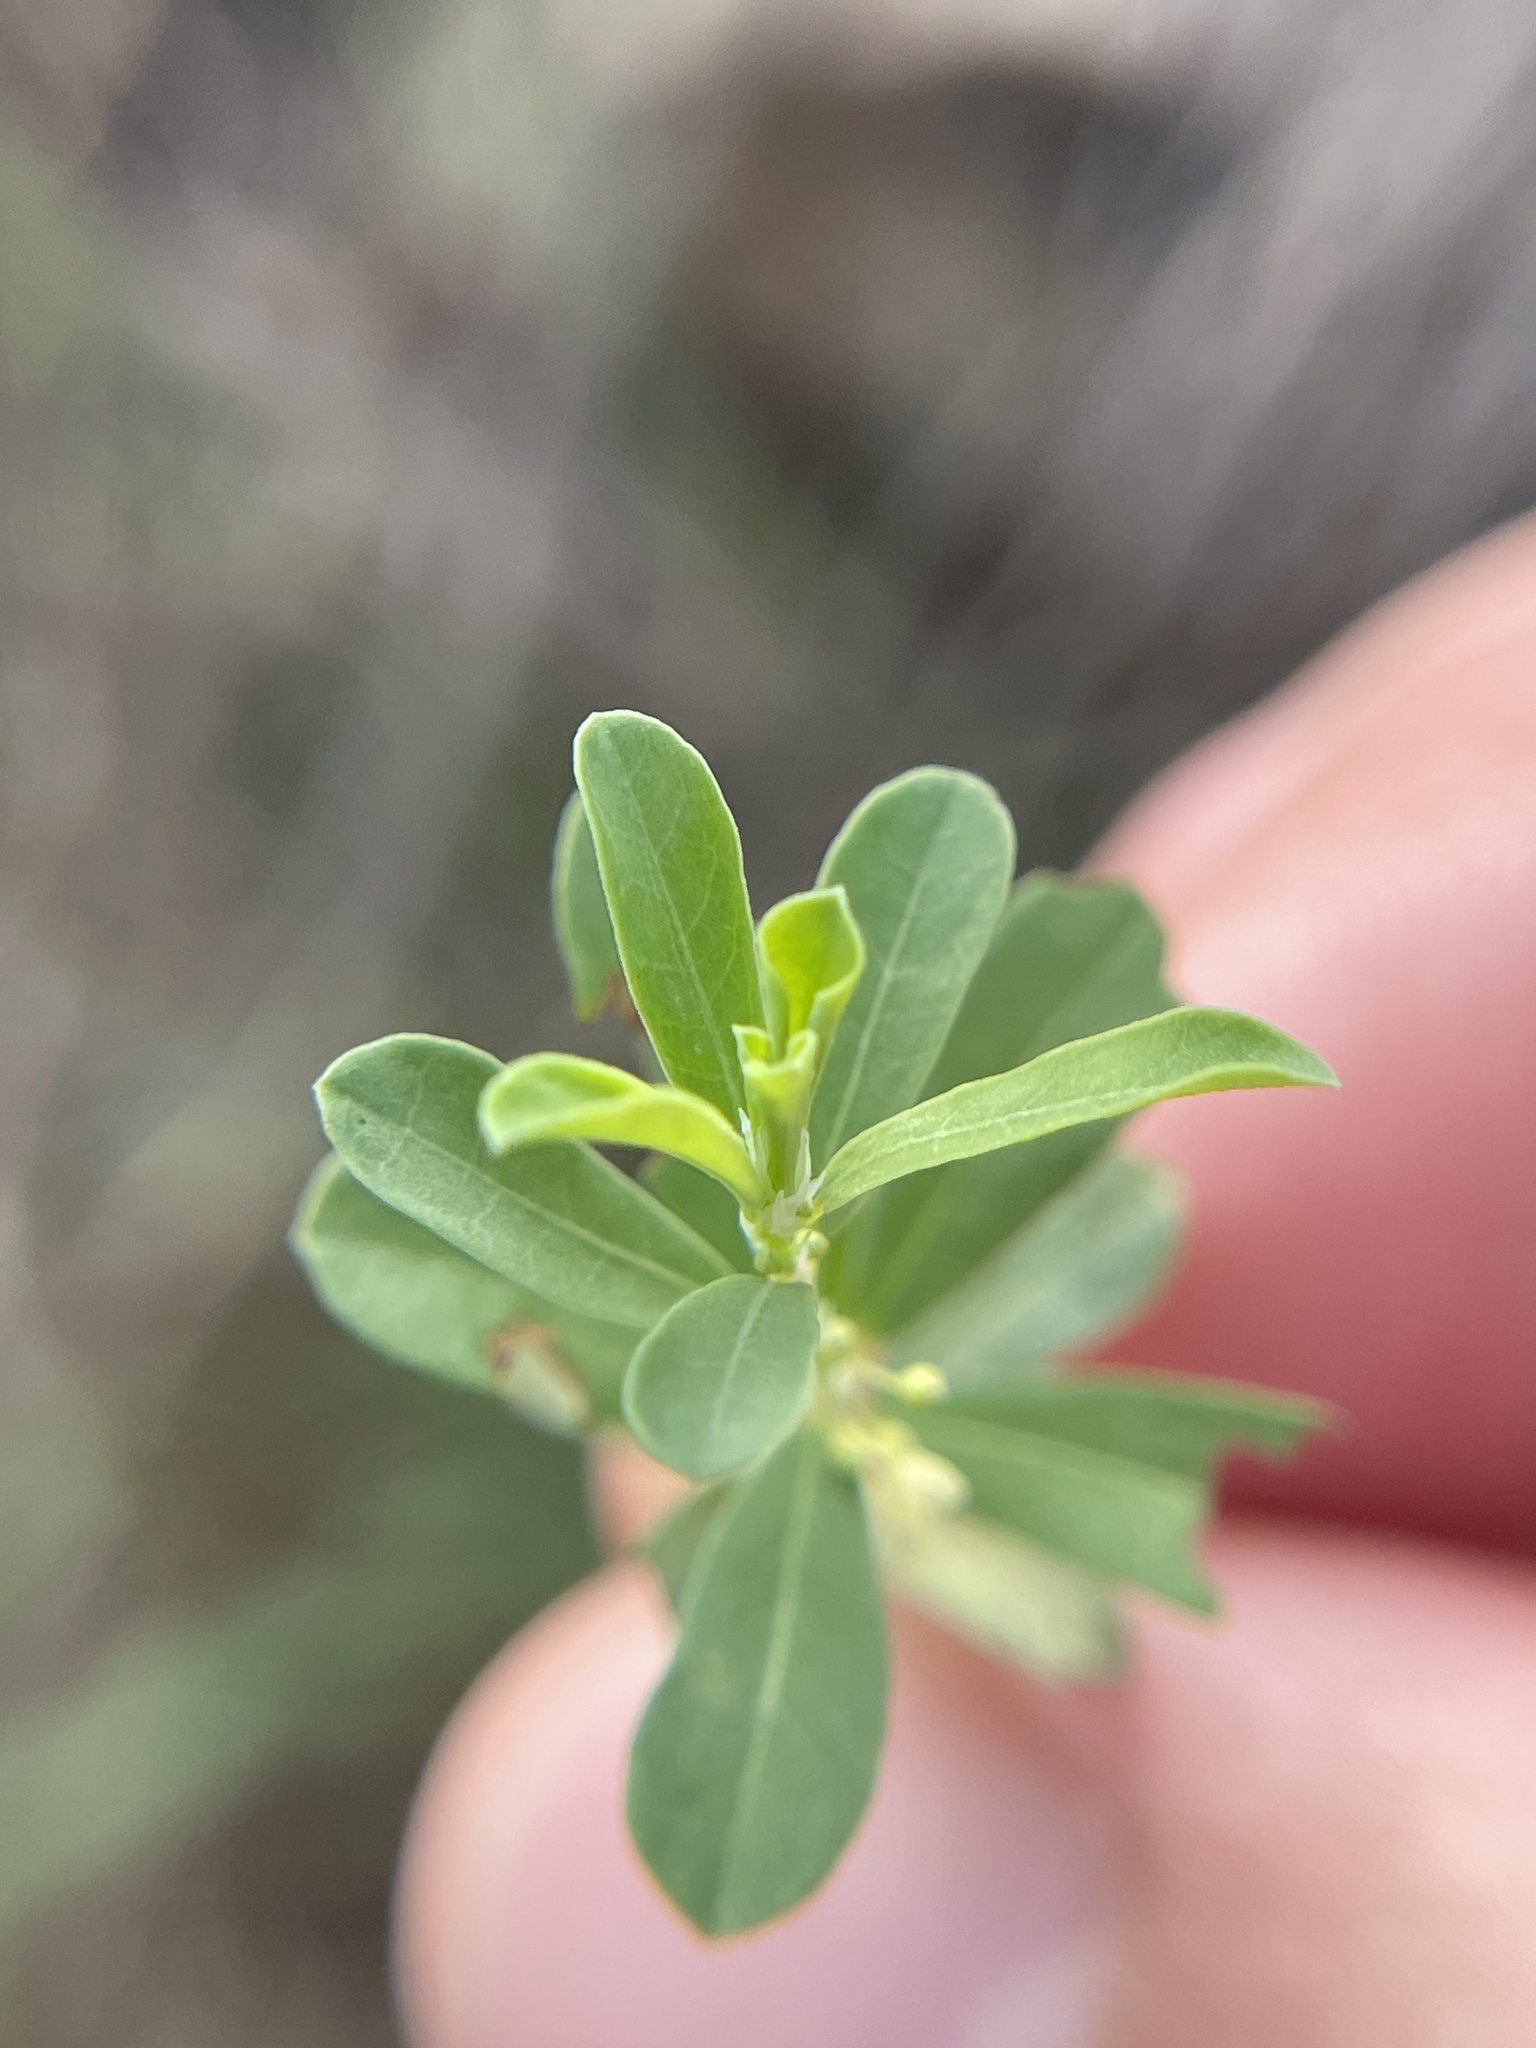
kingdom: Plantae
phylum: Tracheophyta
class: Magnoliopsida
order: Malpighiales
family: Phyllanthaceae
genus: Phyllanthus
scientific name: Phyllanthus polygonoides
